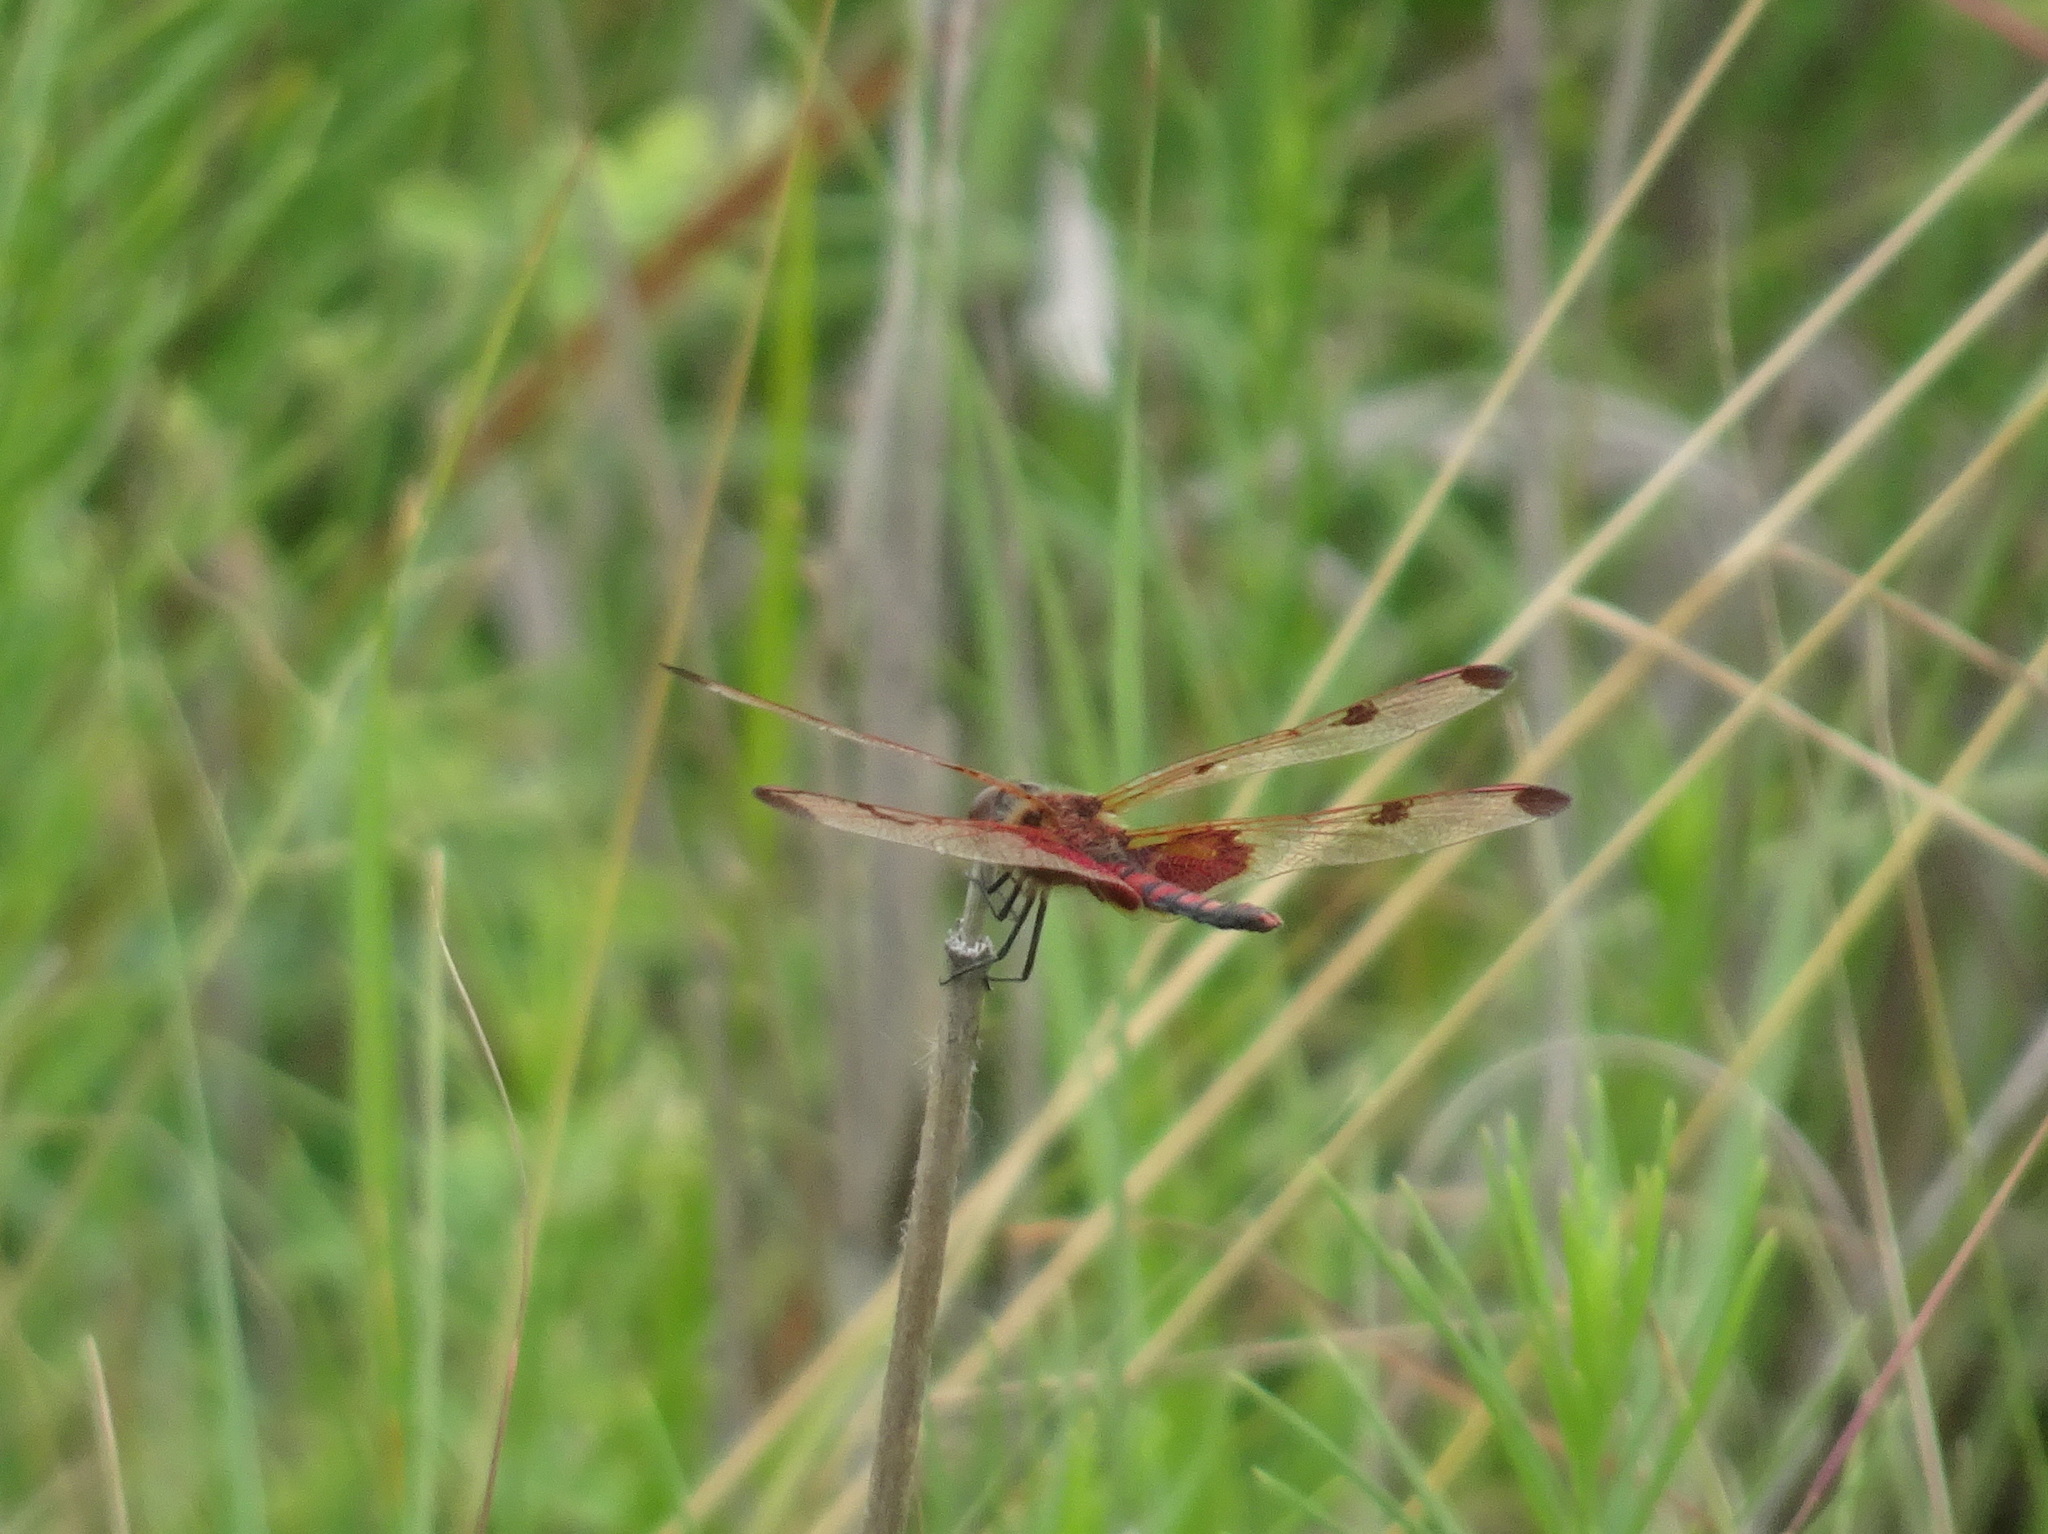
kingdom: Animalia
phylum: Arthropoda
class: Insecta
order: Odonata
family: Libellulidae
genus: Celithemis
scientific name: Celithemis elisa
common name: Calico pennant
